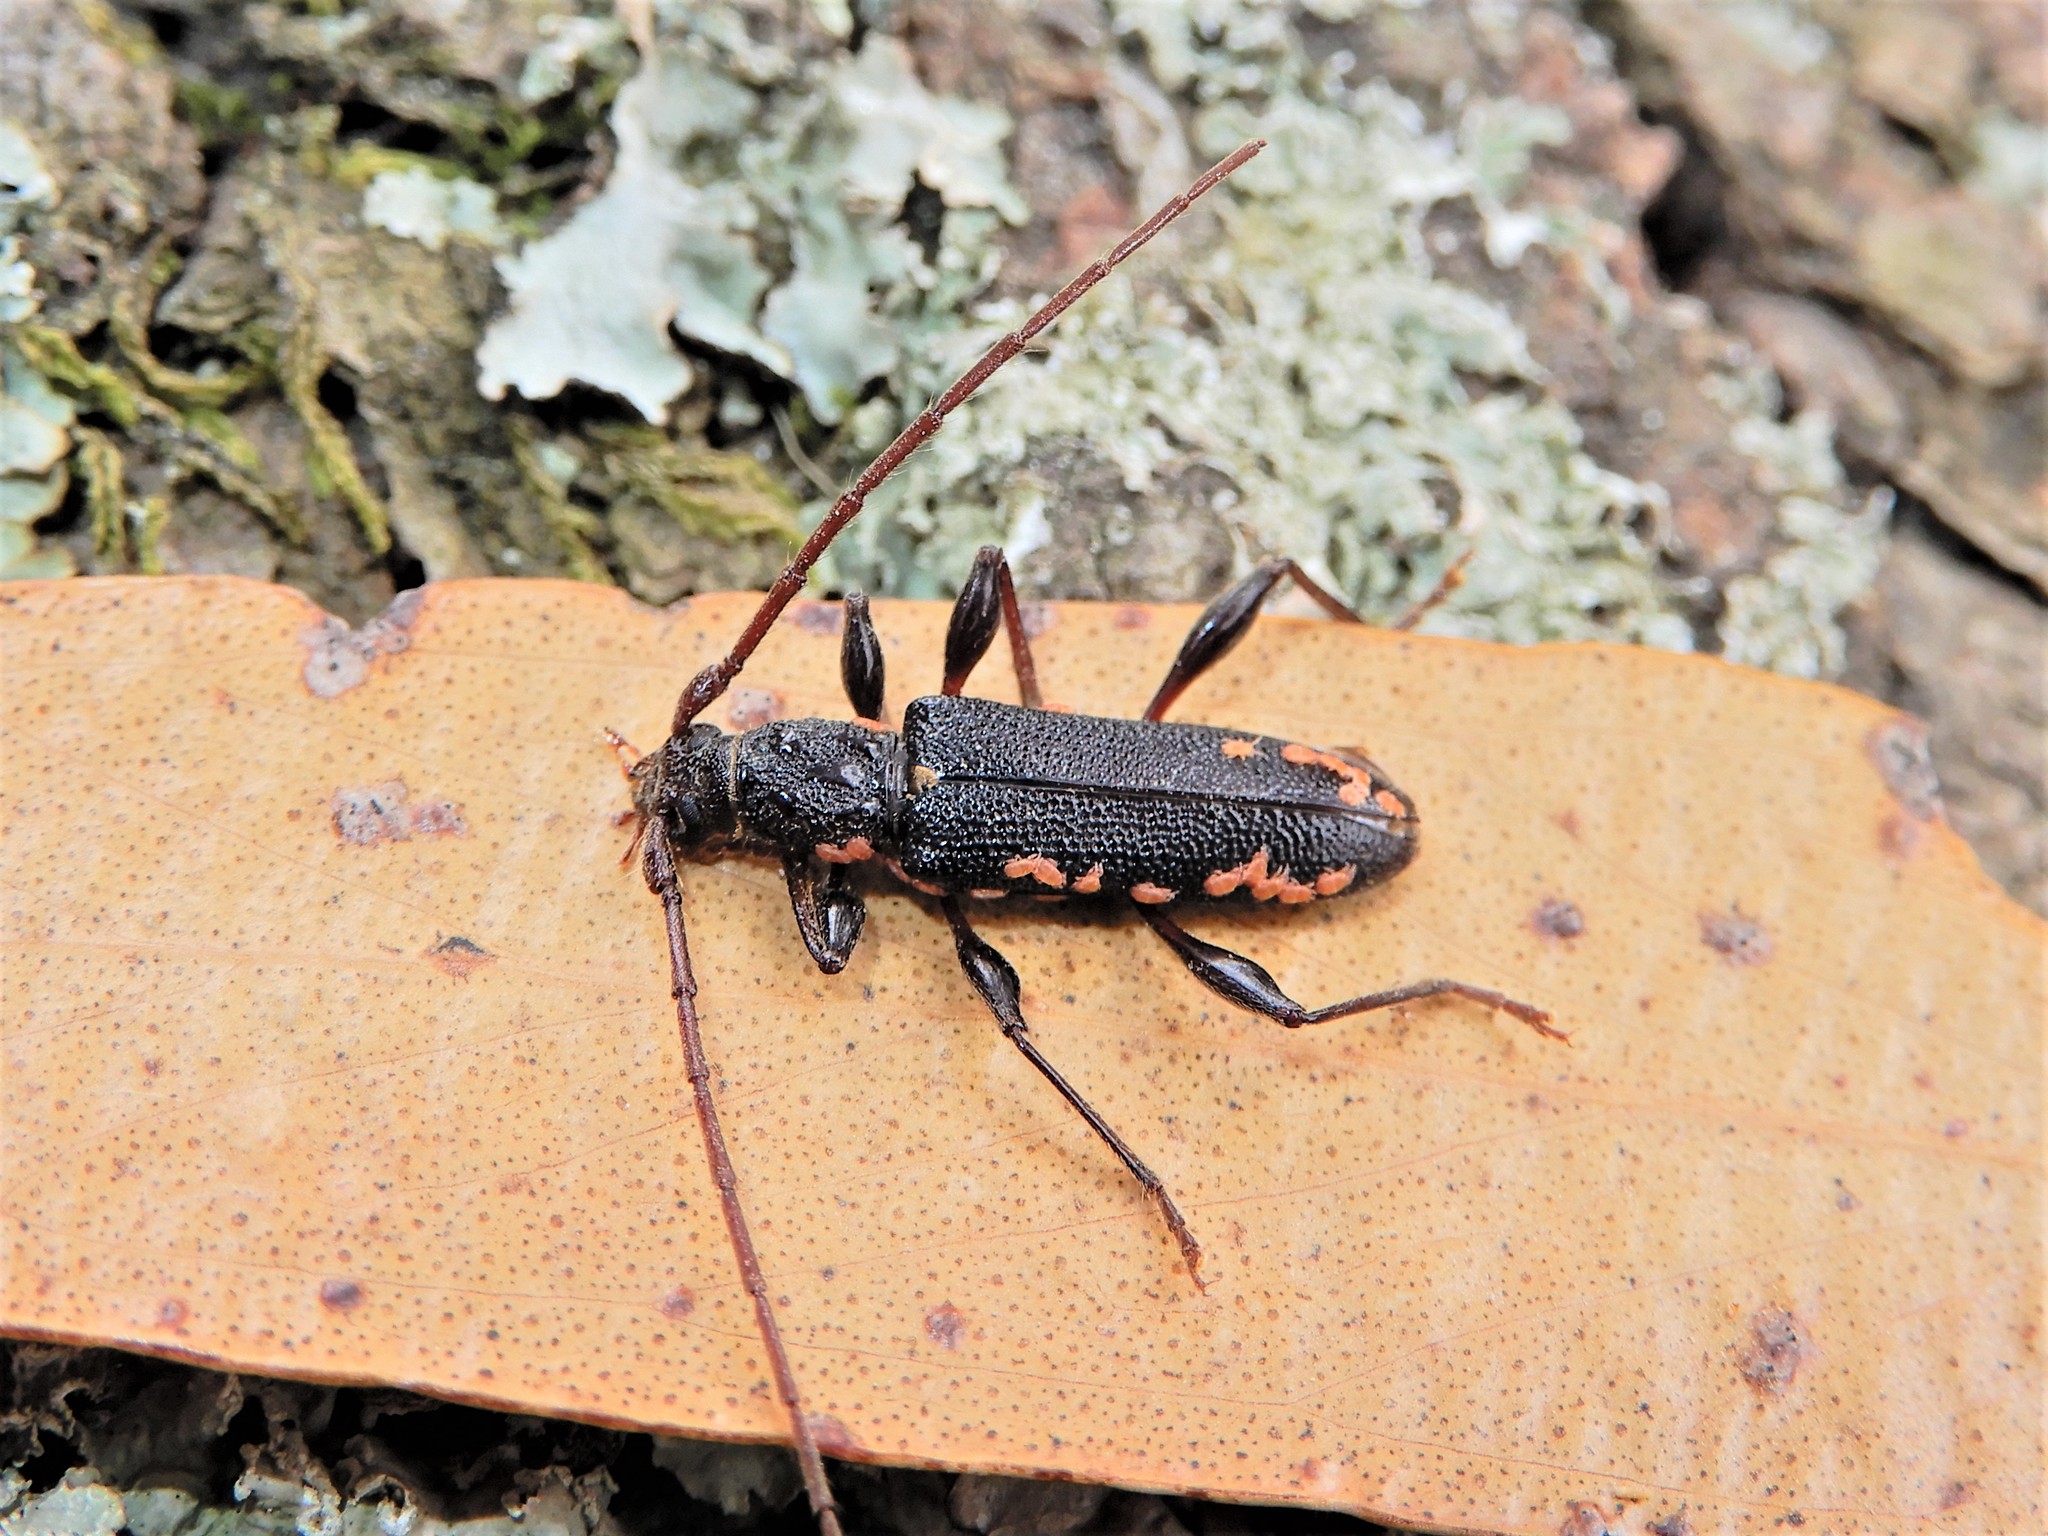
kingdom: Animalia
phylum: Arthropoda
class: Insecta
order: Coleoptera
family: Cerambycidae
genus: Callidiopis
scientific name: Callidiopis scutellaris
